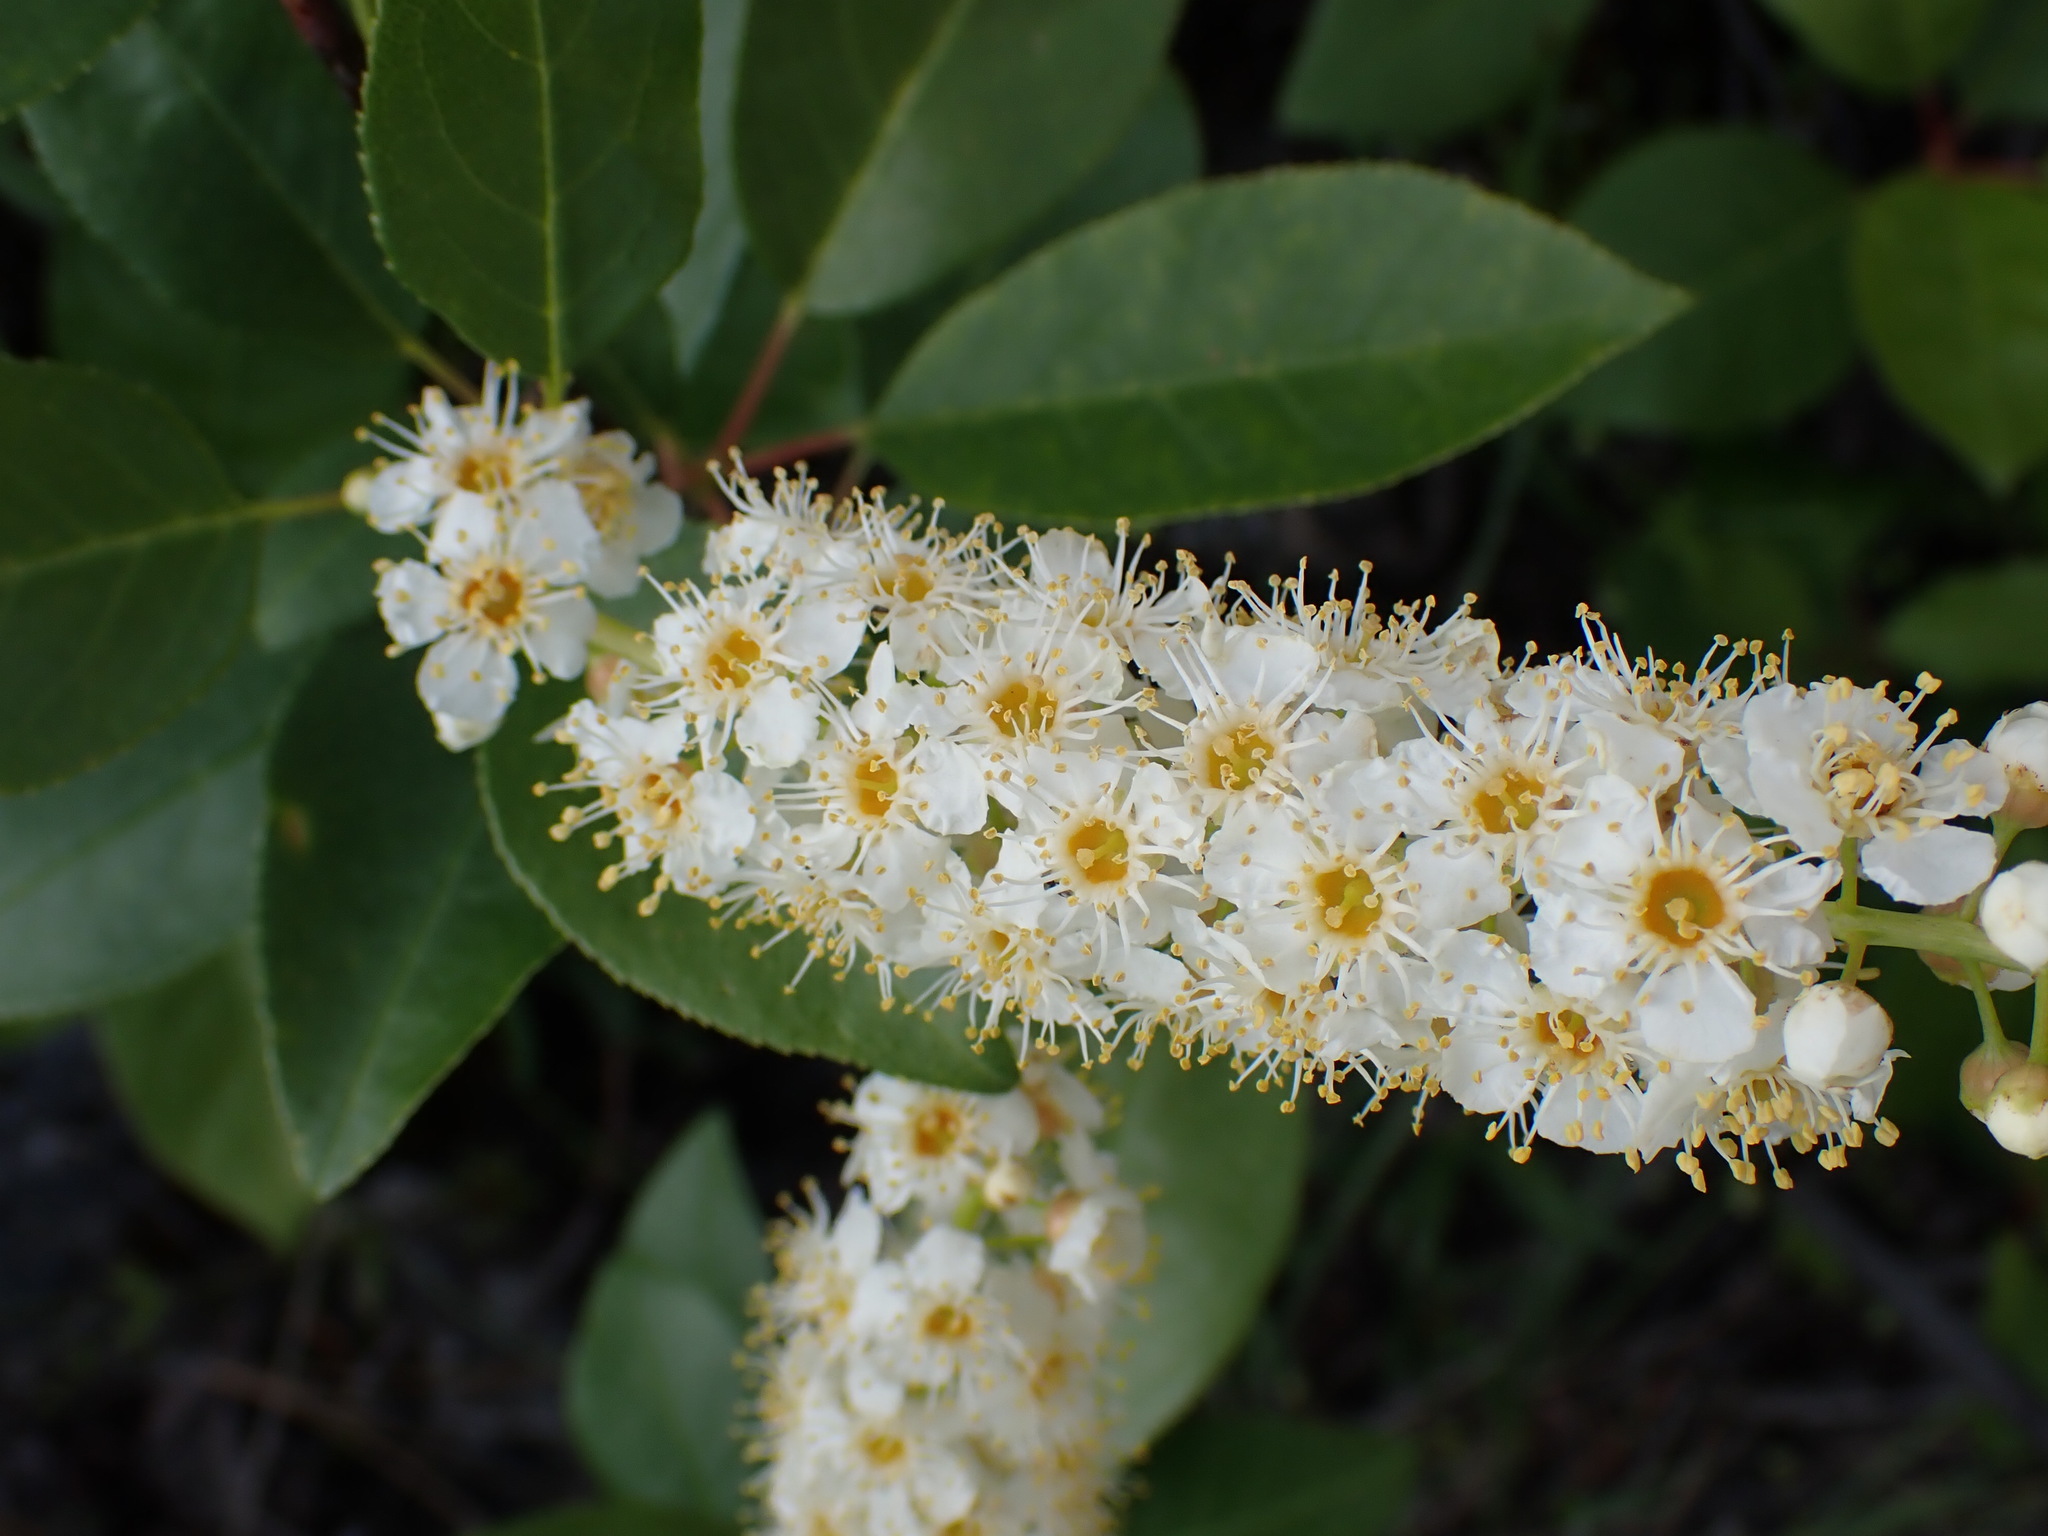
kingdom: Plantae
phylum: Tracheophyta
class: Magnoliopsida
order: Rosales
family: Rosaceae
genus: Prunus
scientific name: Prunus virginiana
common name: Chokecherry
